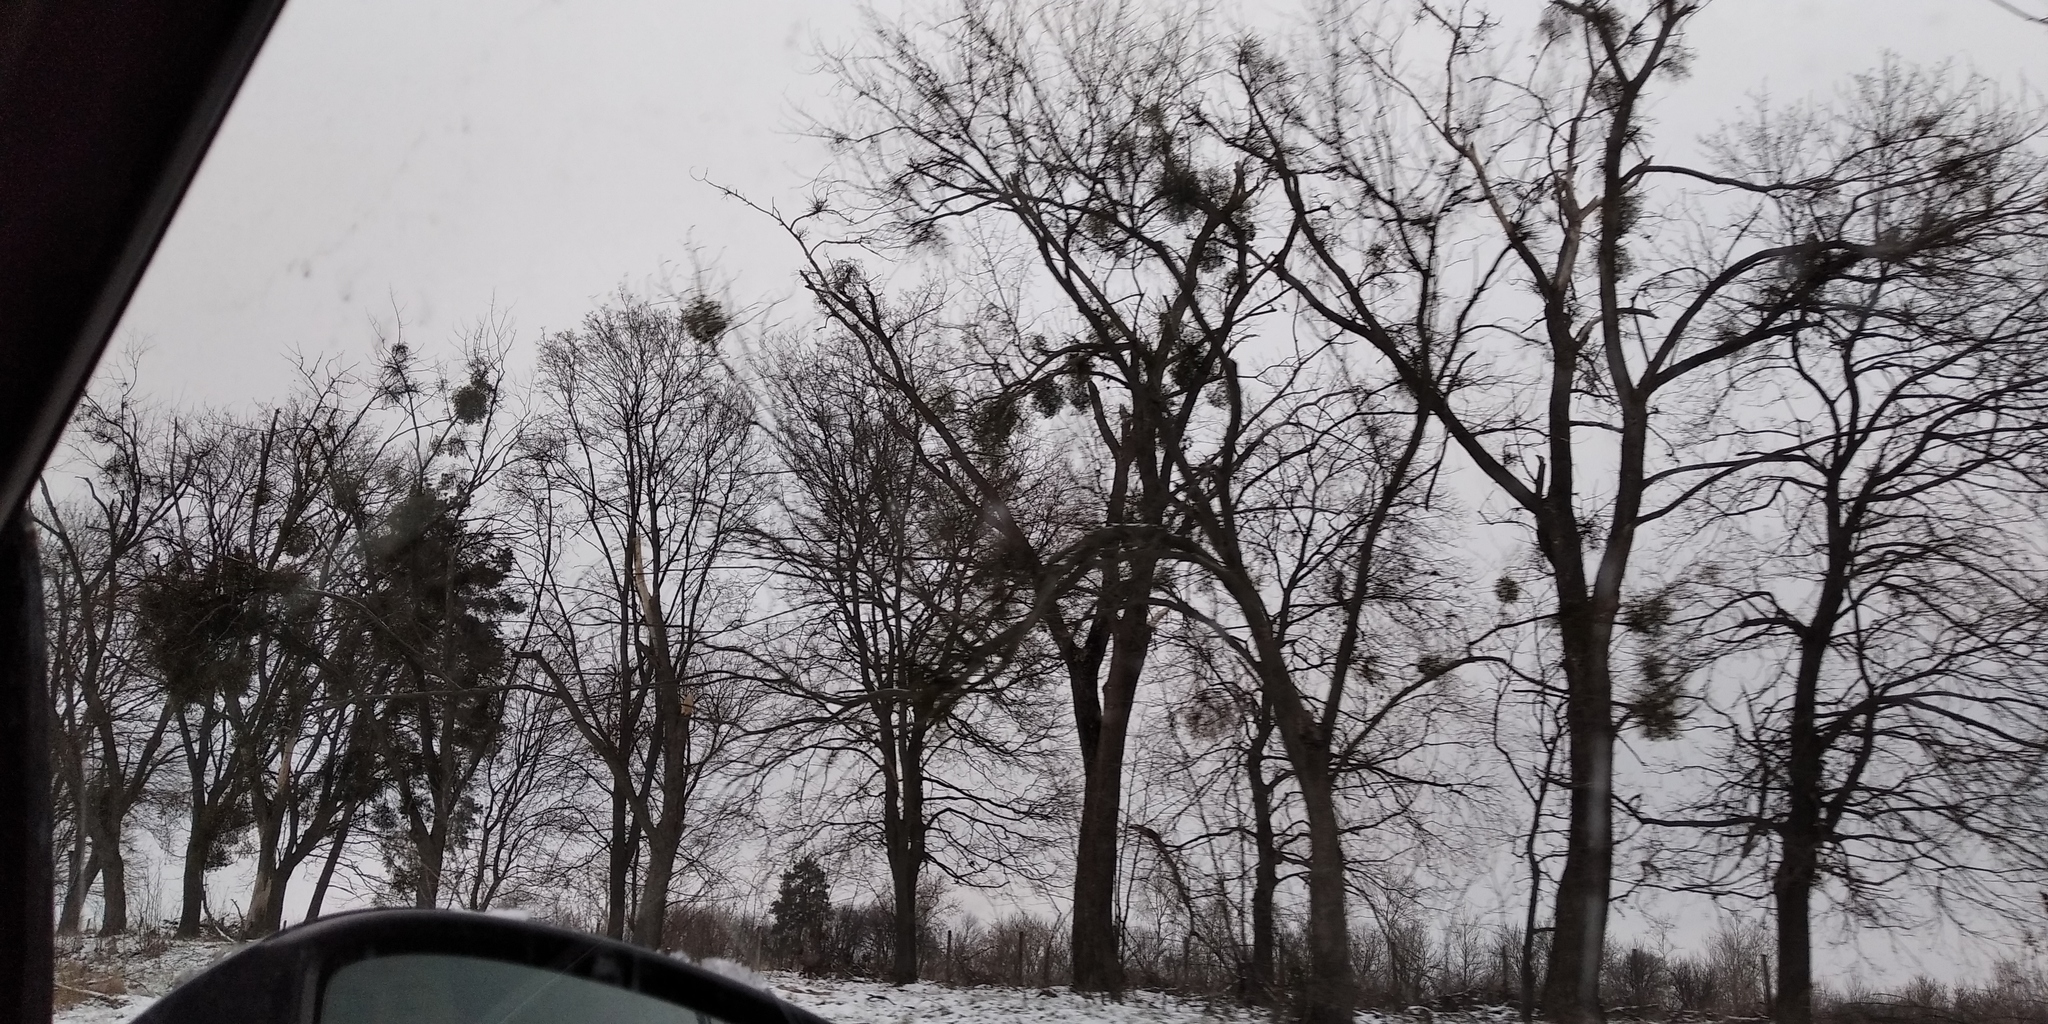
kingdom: Plantae
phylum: Tracheophyta
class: Magnoliopsida
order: Santalales
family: Viscaceae
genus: Viscum
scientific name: Viscum album
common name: Mistletoe
